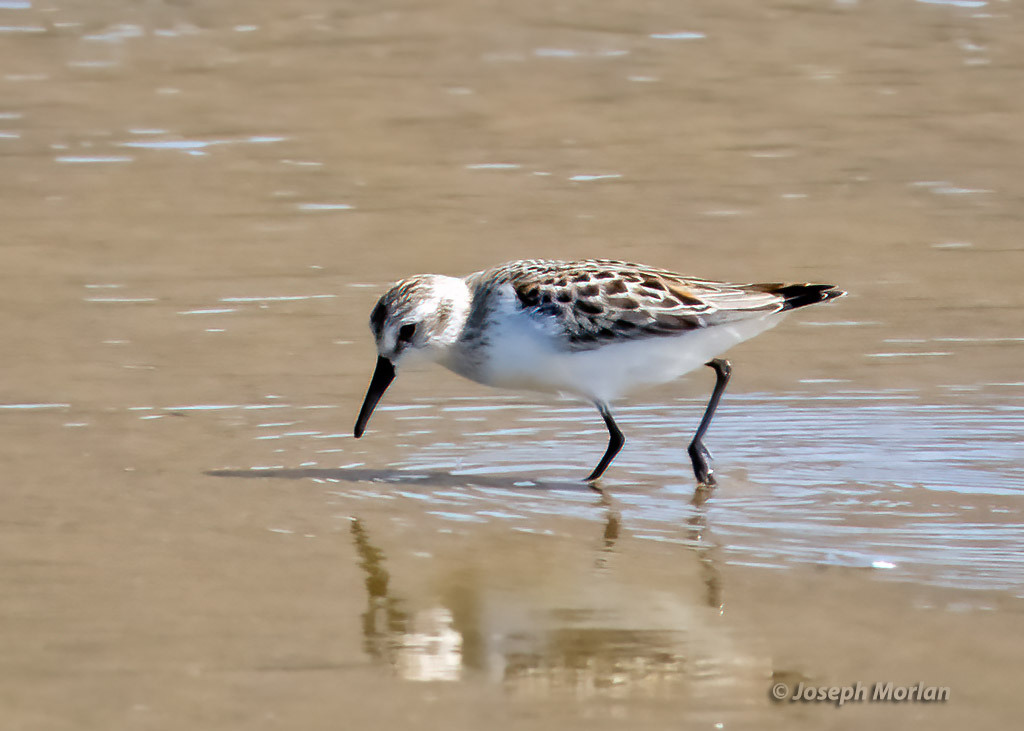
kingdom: Animalia
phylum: Chordata
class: Aves
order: Charadriiformes
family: Scolopacidae
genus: Calidris
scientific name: Calidris mauri
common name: Western sandpiper
